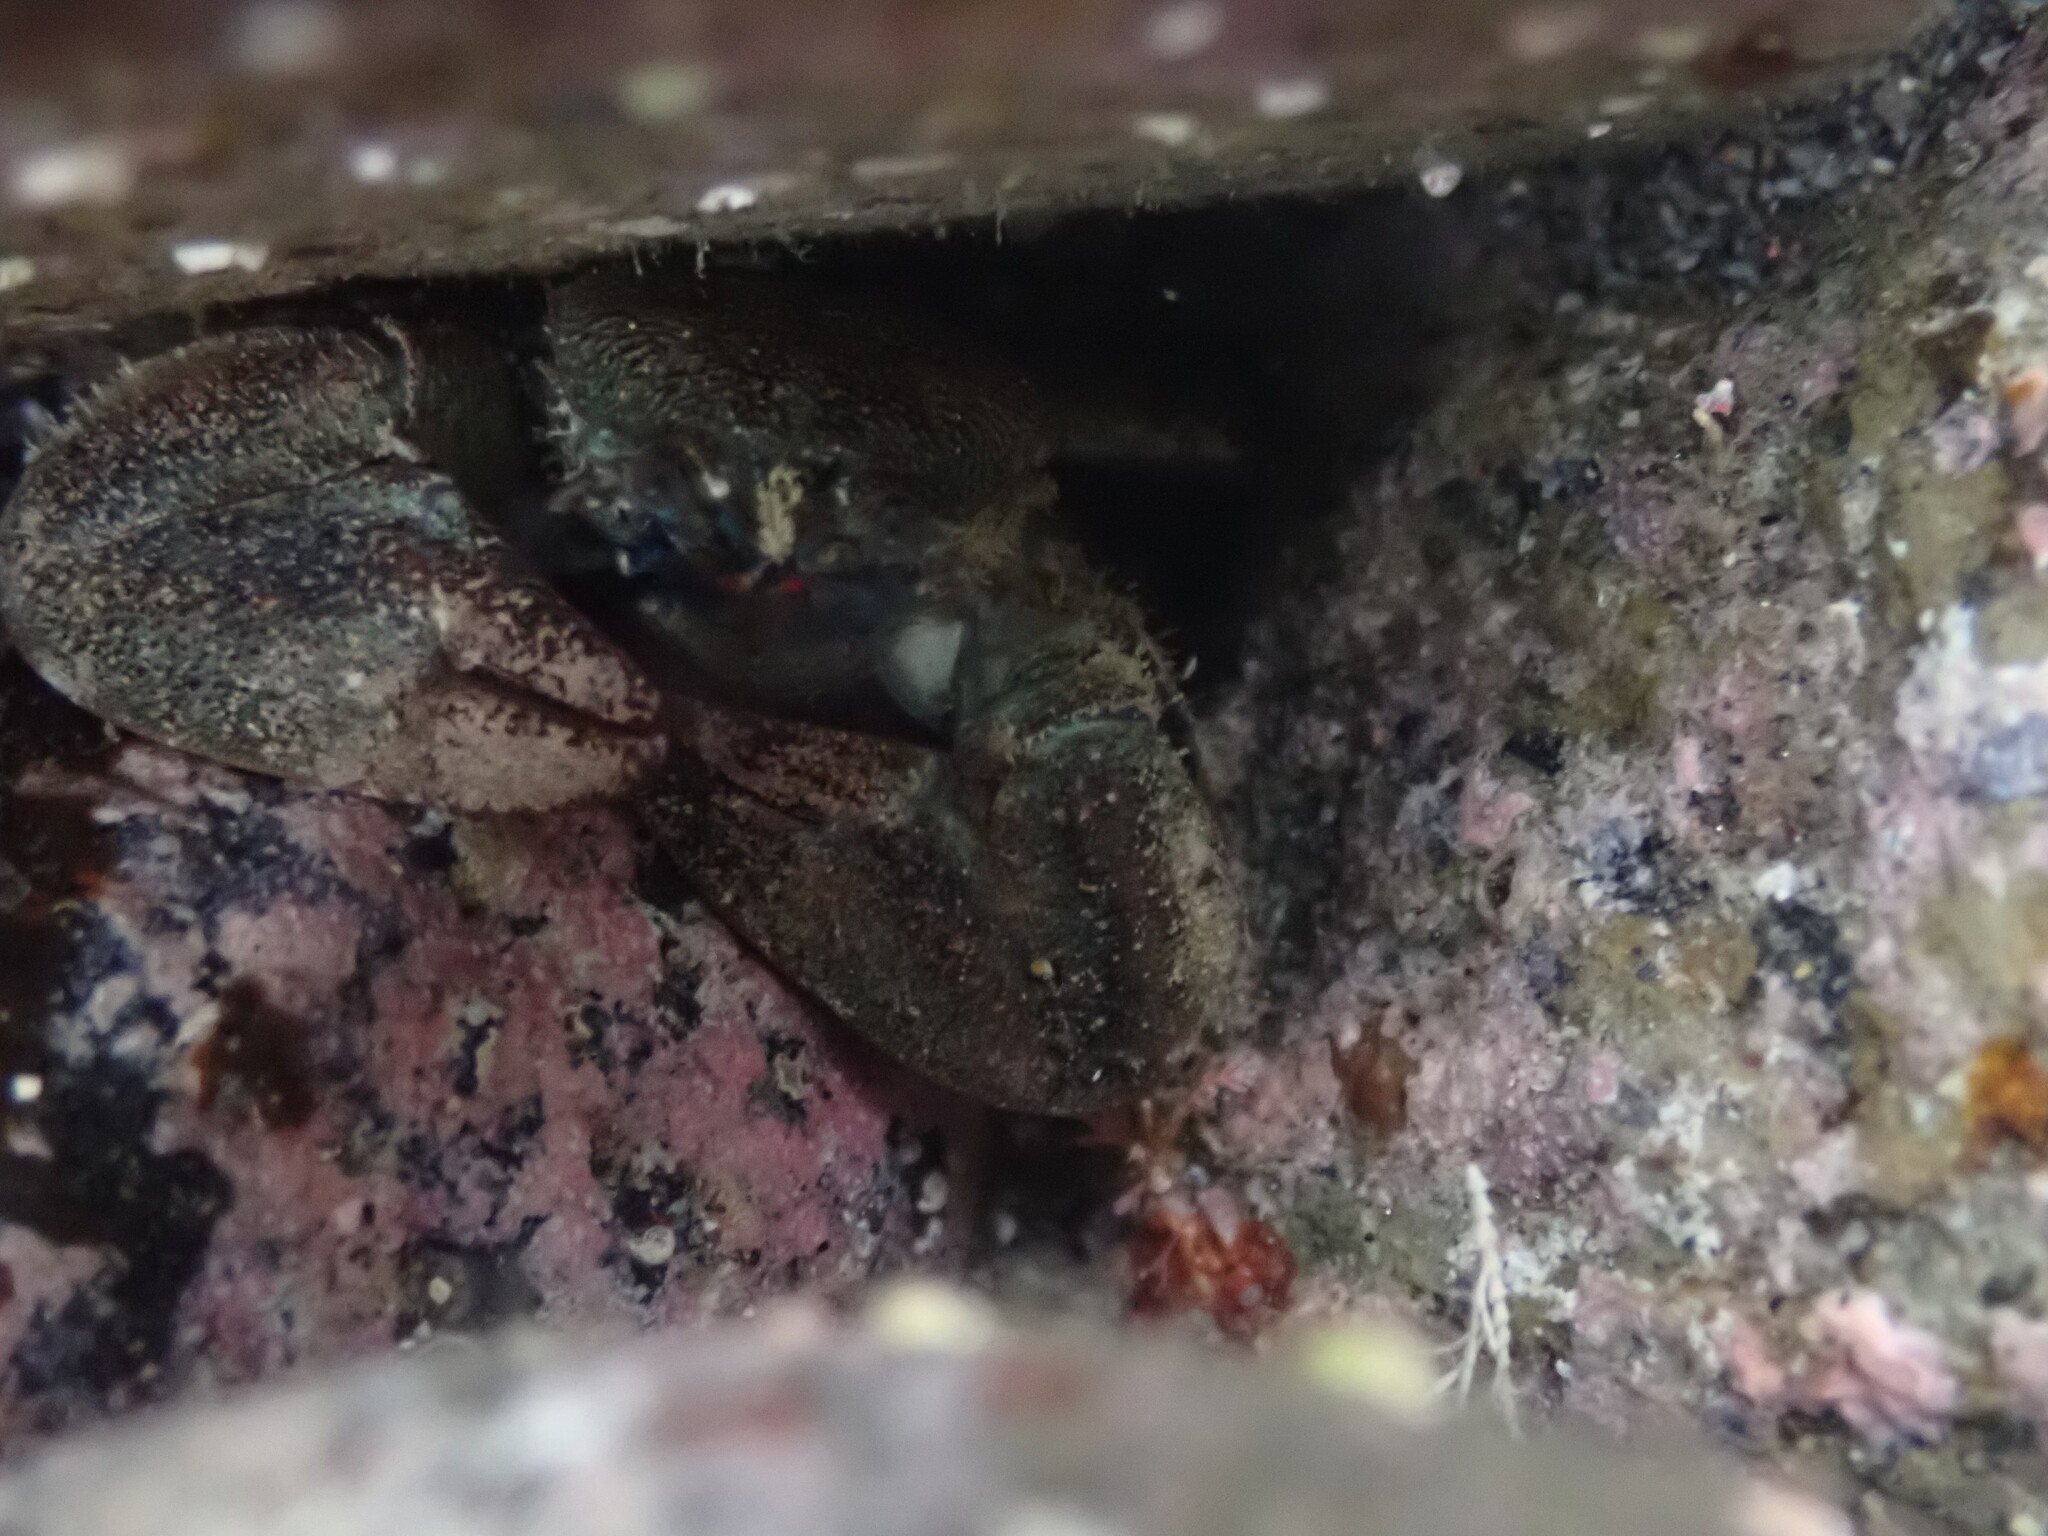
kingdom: Animalia
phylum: Arthropoda
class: Malacostraca
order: Decapoda
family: Porcellanidae
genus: Petrolisthes
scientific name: Petrolisthes elongatus
